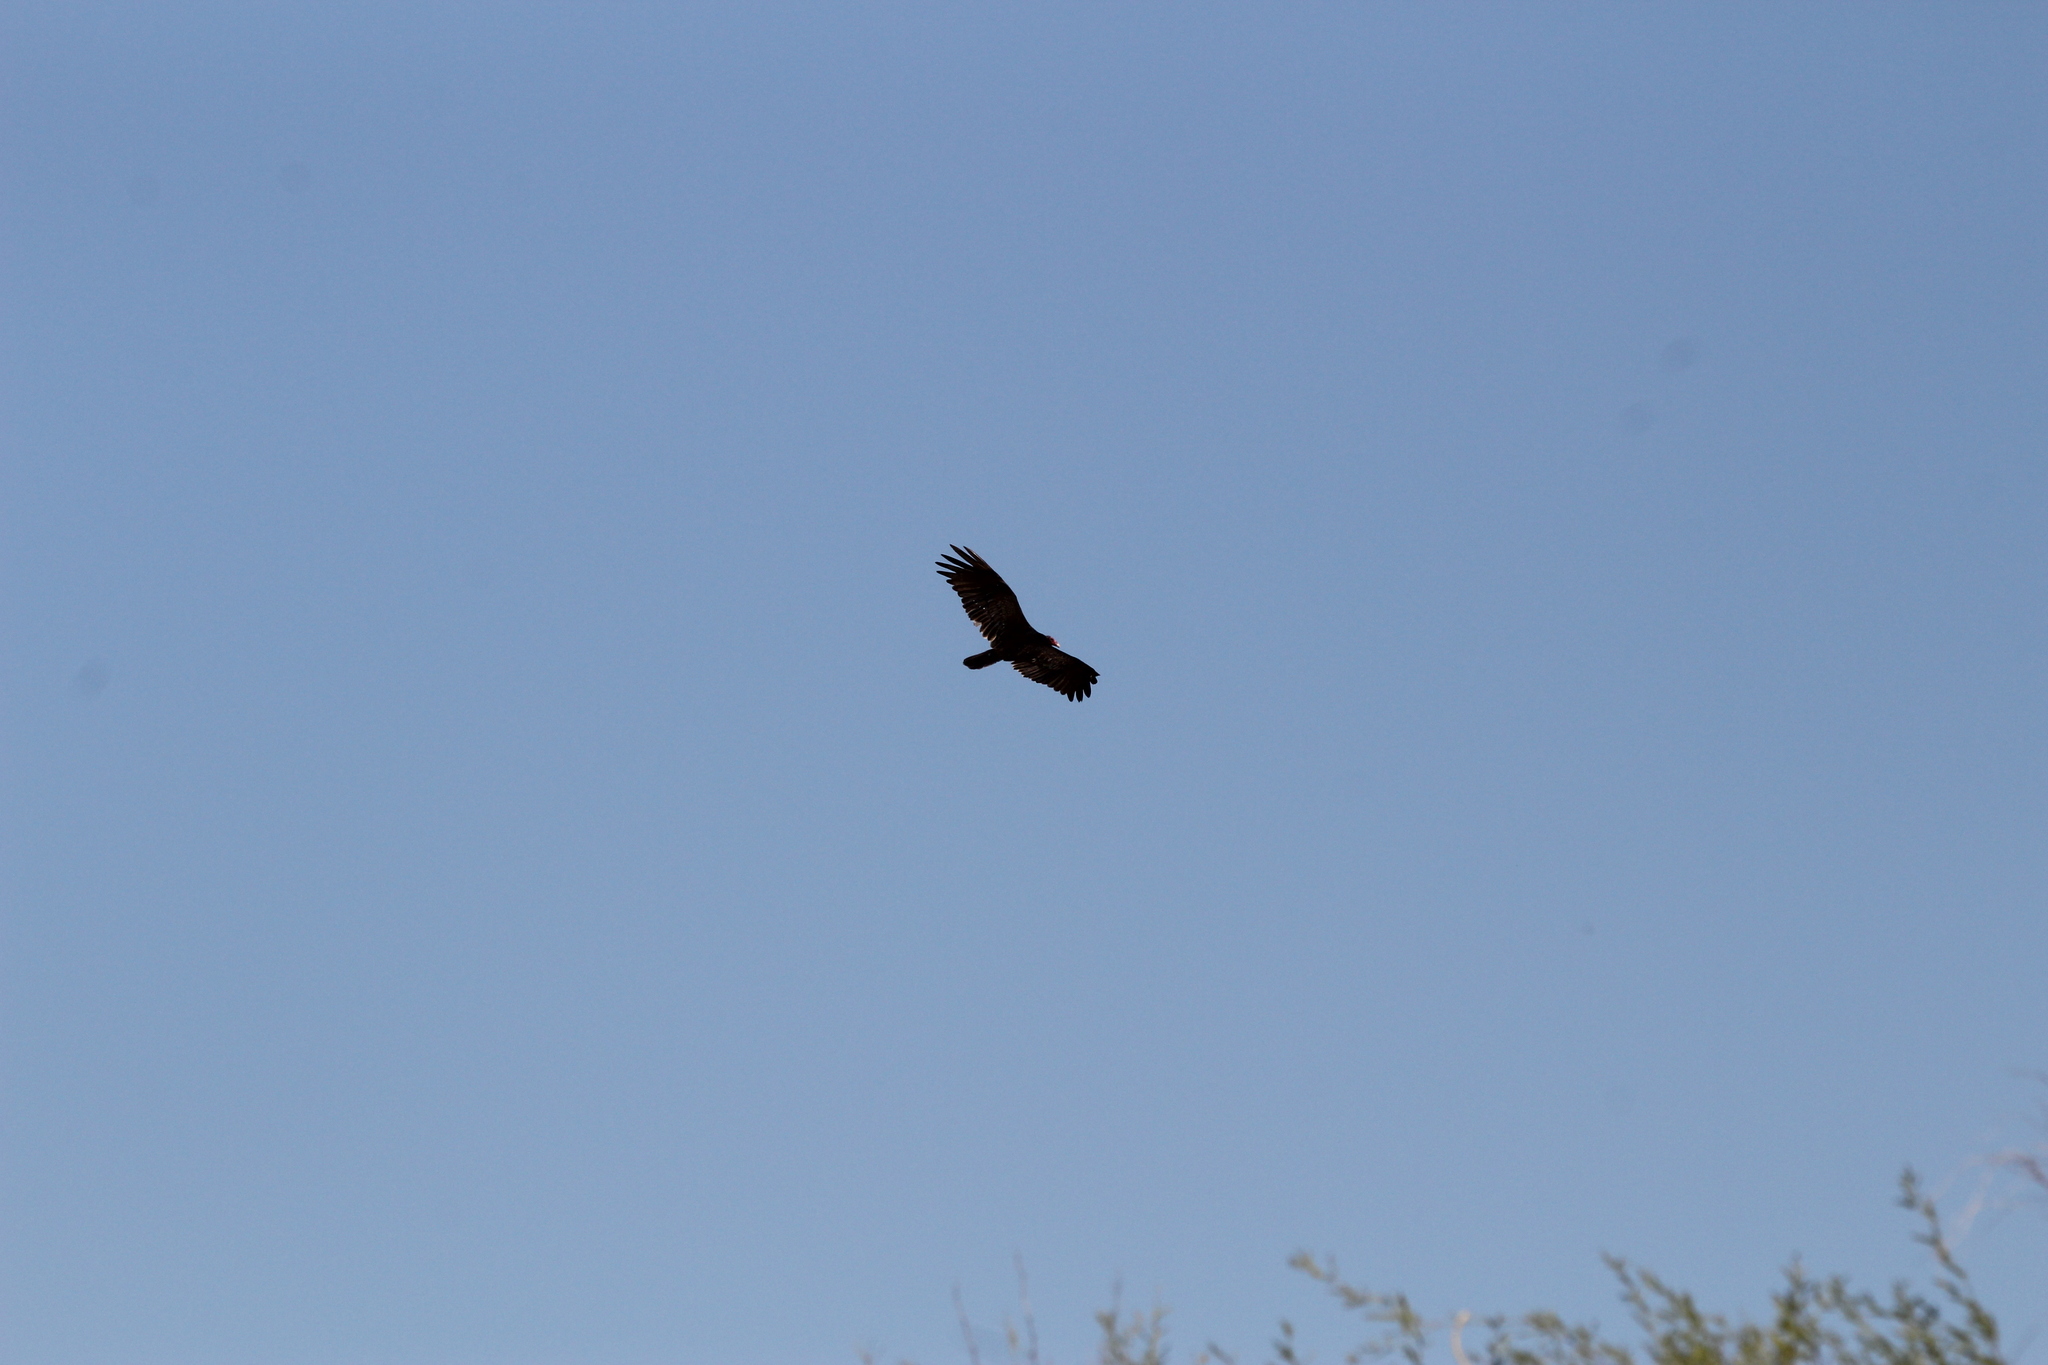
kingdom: Animalia
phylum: Chordata
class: Aves
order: Accipitriformes
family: Cathartidae
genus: Cathartes
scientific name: Cathartes aura
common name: Turkey vulture
